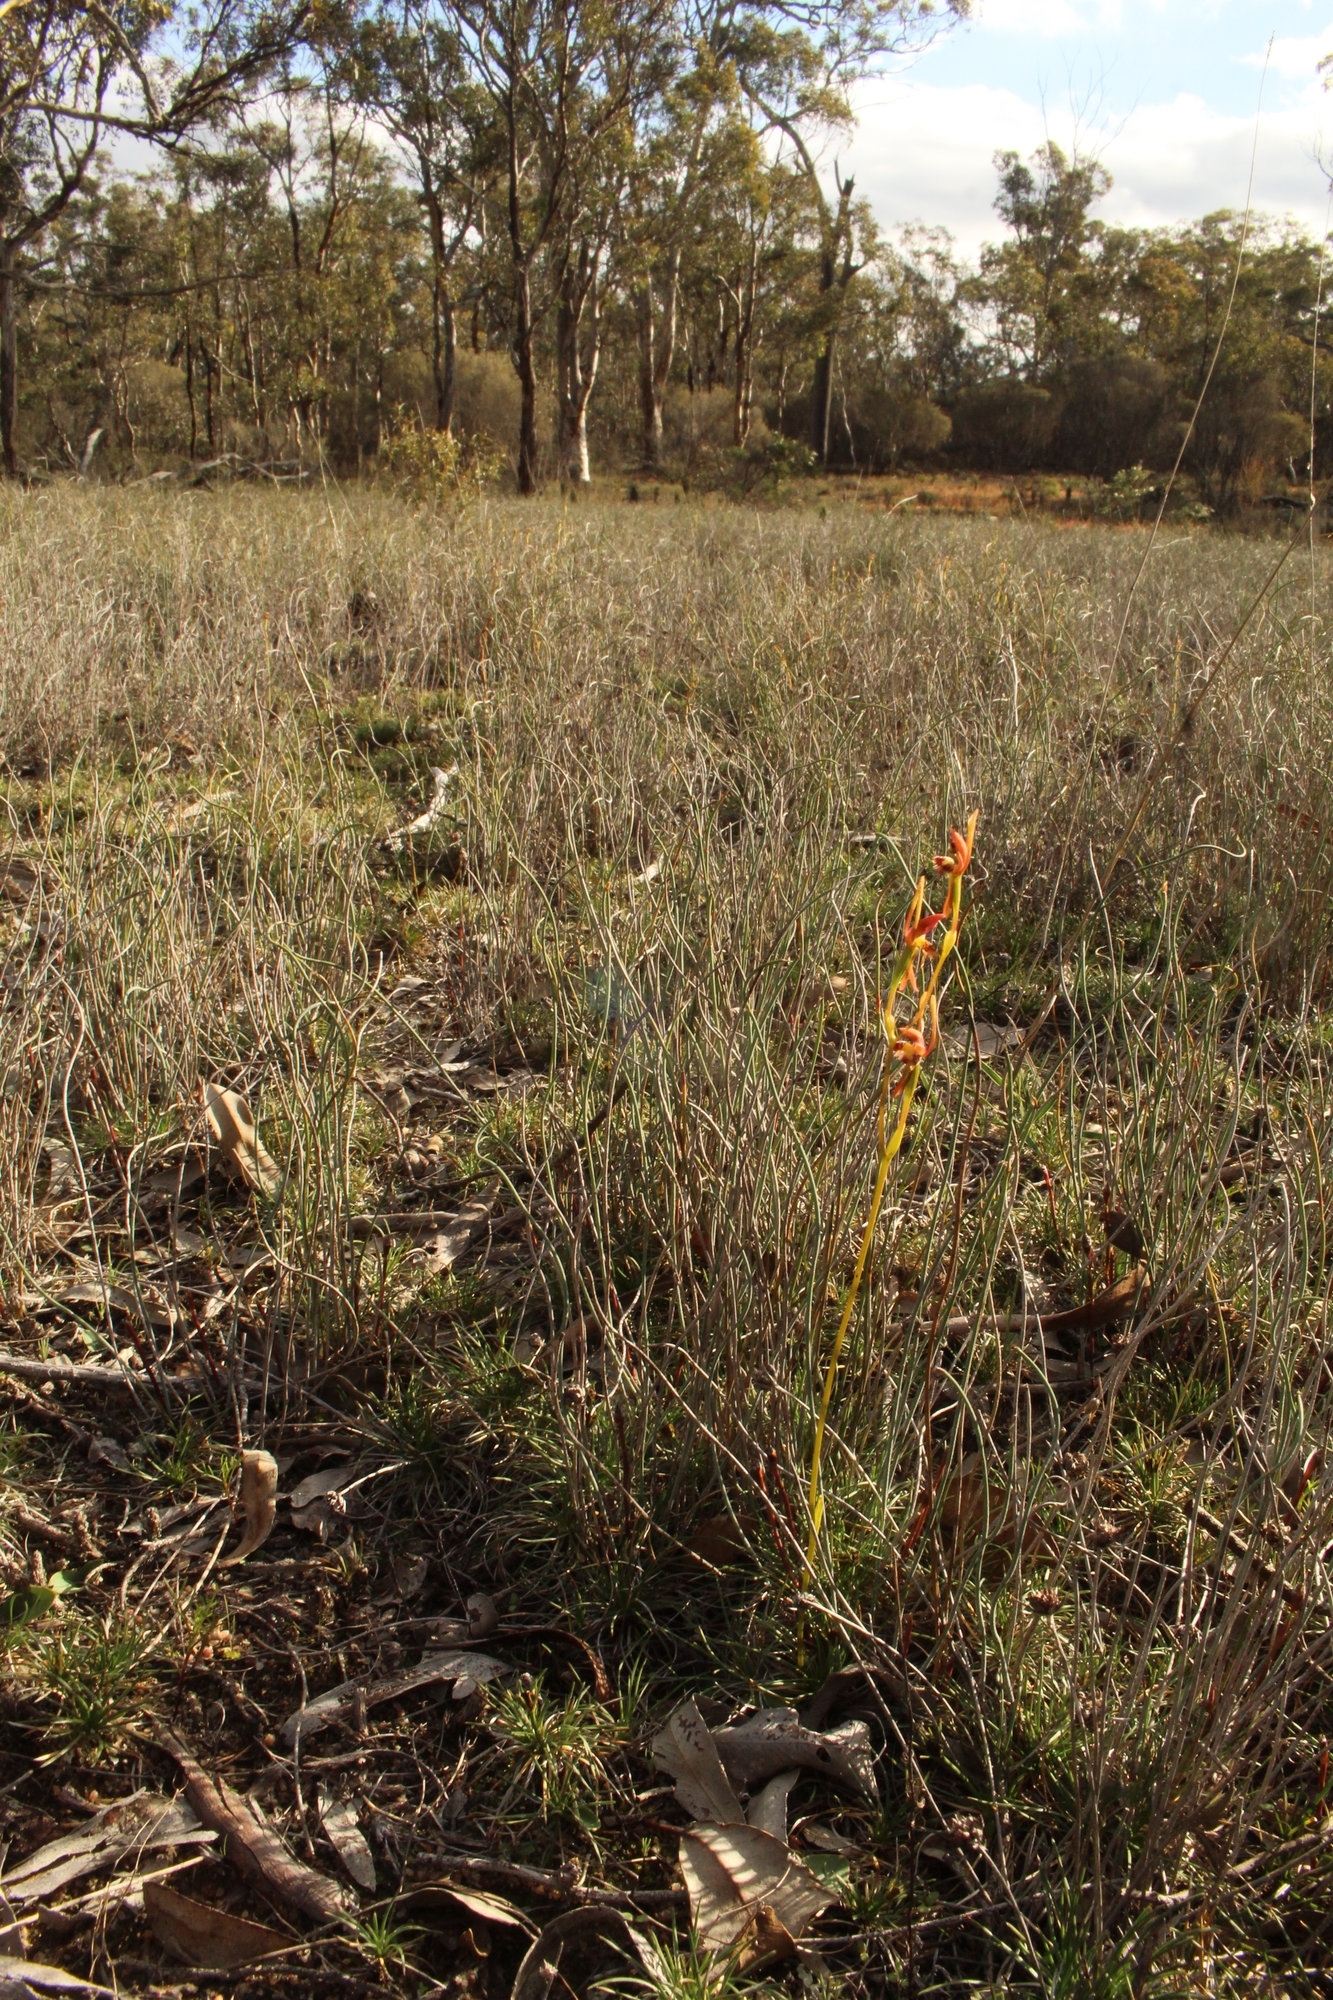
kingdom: Plantae
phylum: Tracheophyta
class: Liliopsida
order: Asparagales
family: Orchidaceae
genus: Leporella
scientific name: Leporella fimbriata
